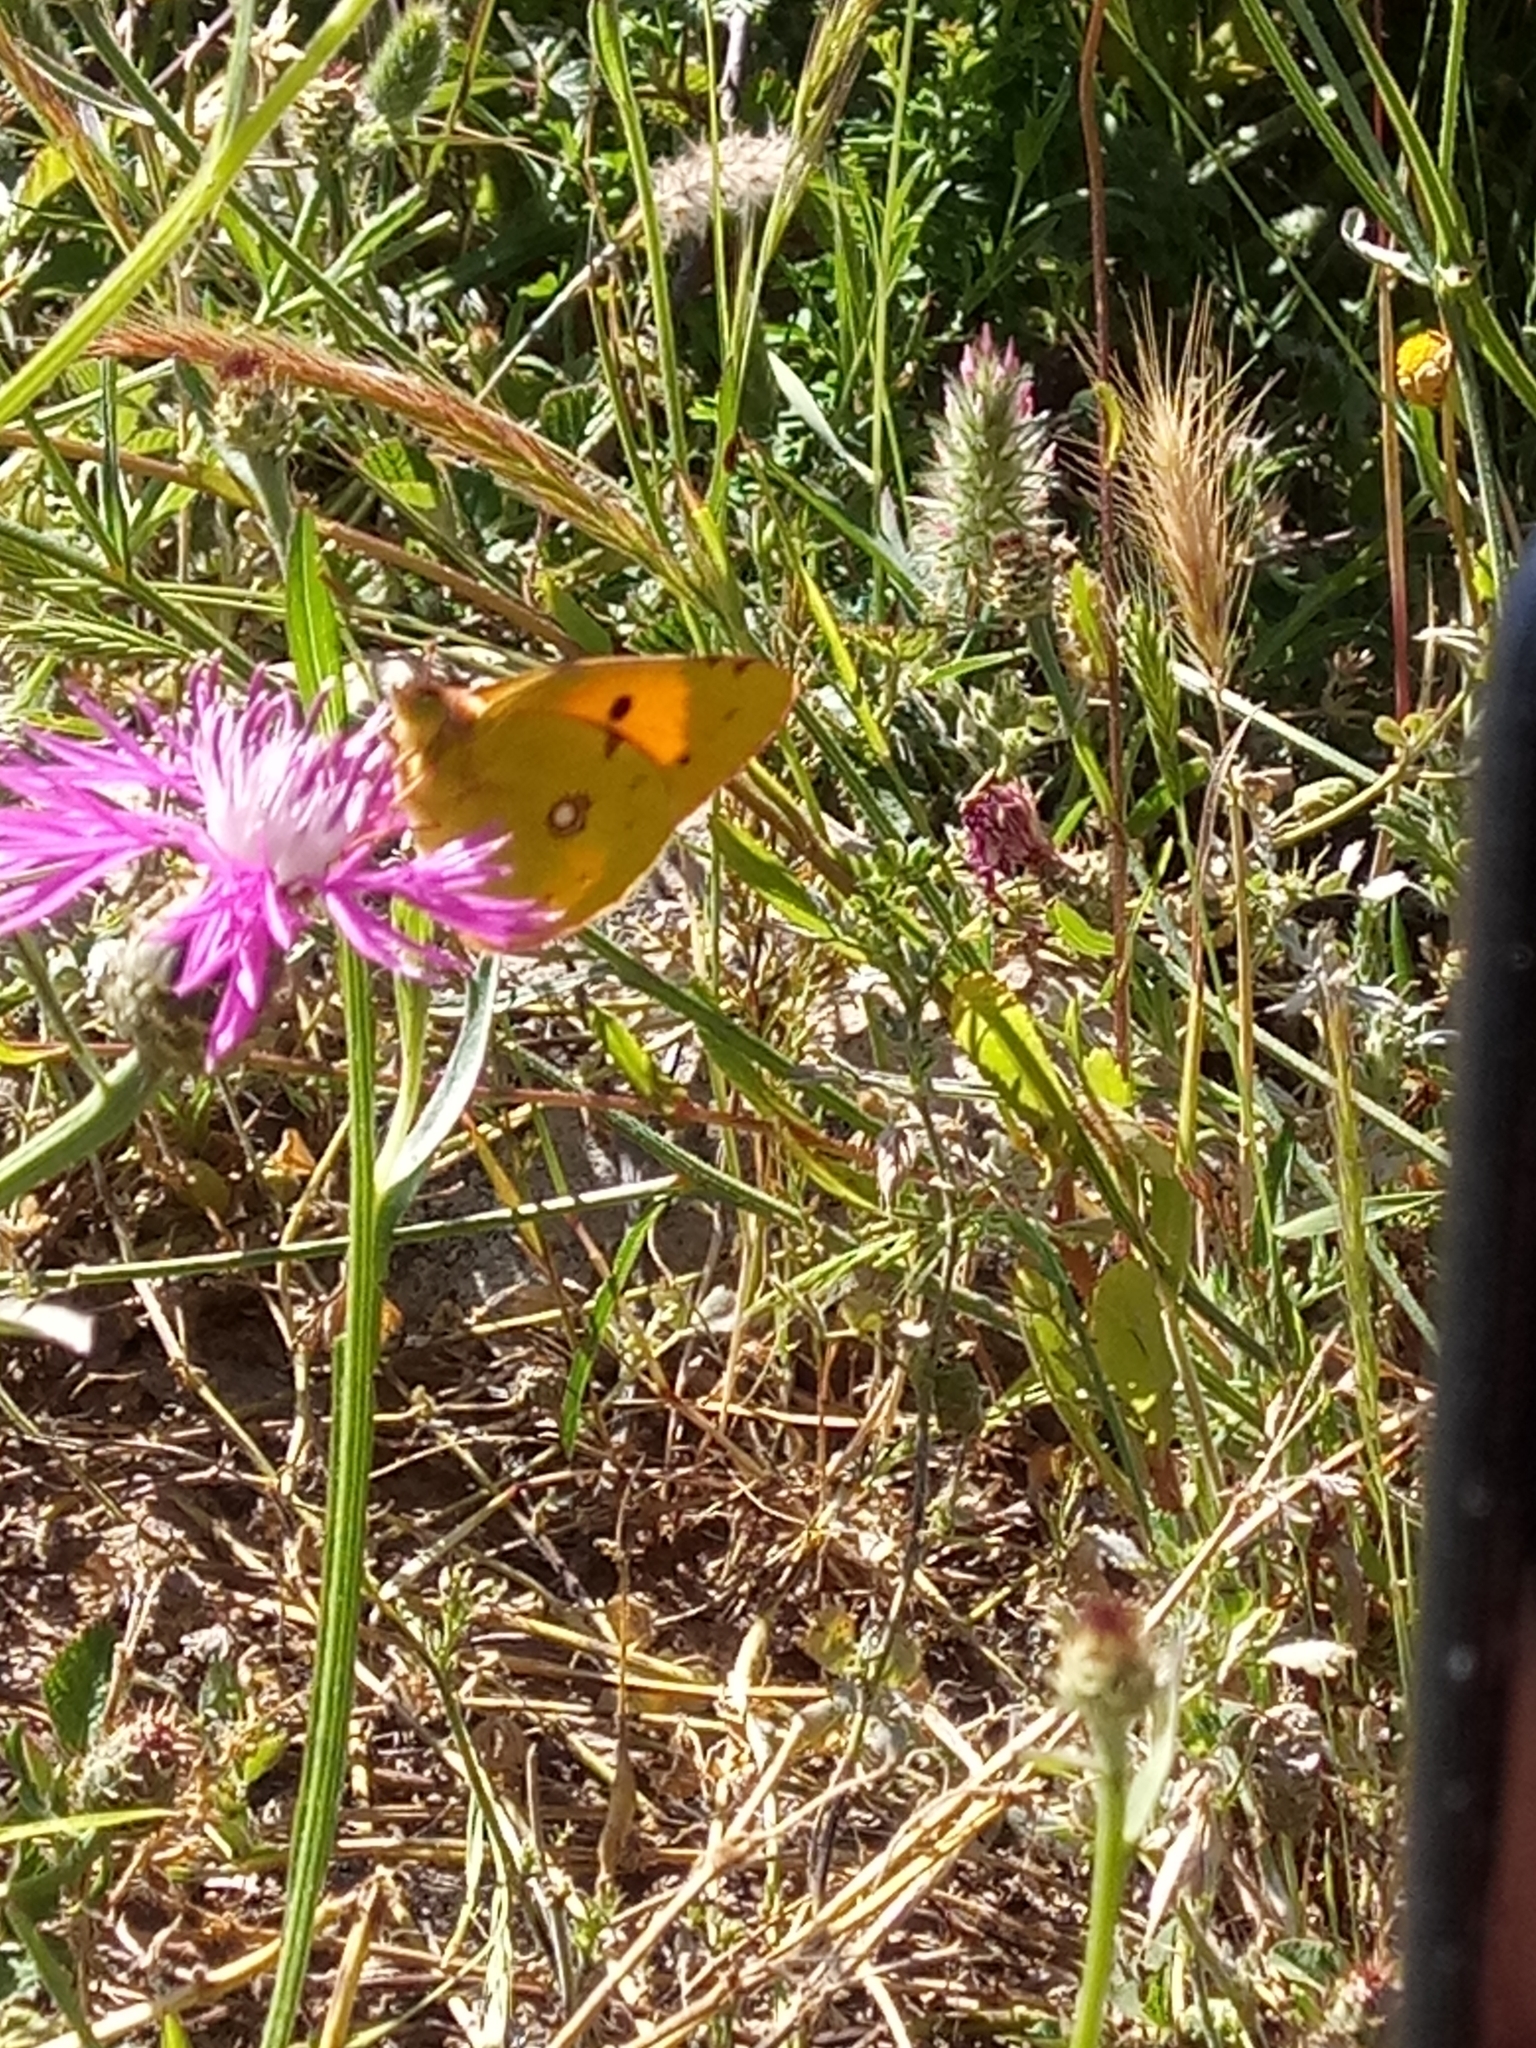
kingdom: Animalia
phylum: Arthropoda
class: Insecta
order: Lepidoptera
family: Pieridae
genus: Colias
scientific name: Colias croceus
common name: Clouded yellow
